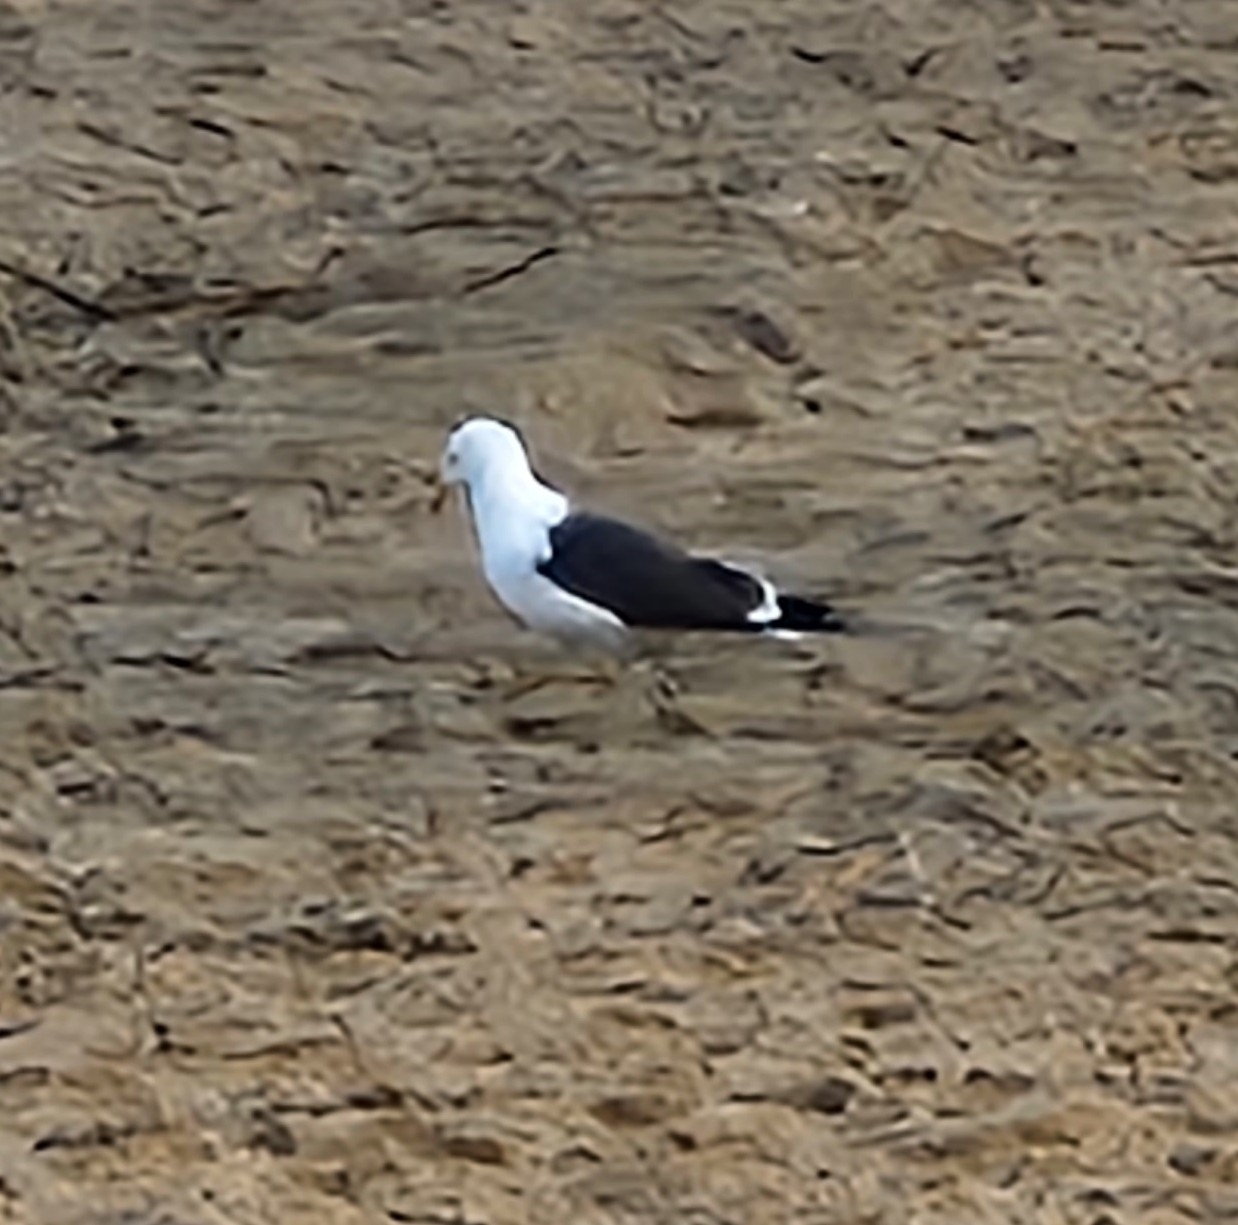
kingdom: Animalia
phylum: Chordata
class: Aves
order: Charadriiformes
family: Laridae
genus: Larus
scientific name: Larus fuscus
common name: Lesser black-backed gull
